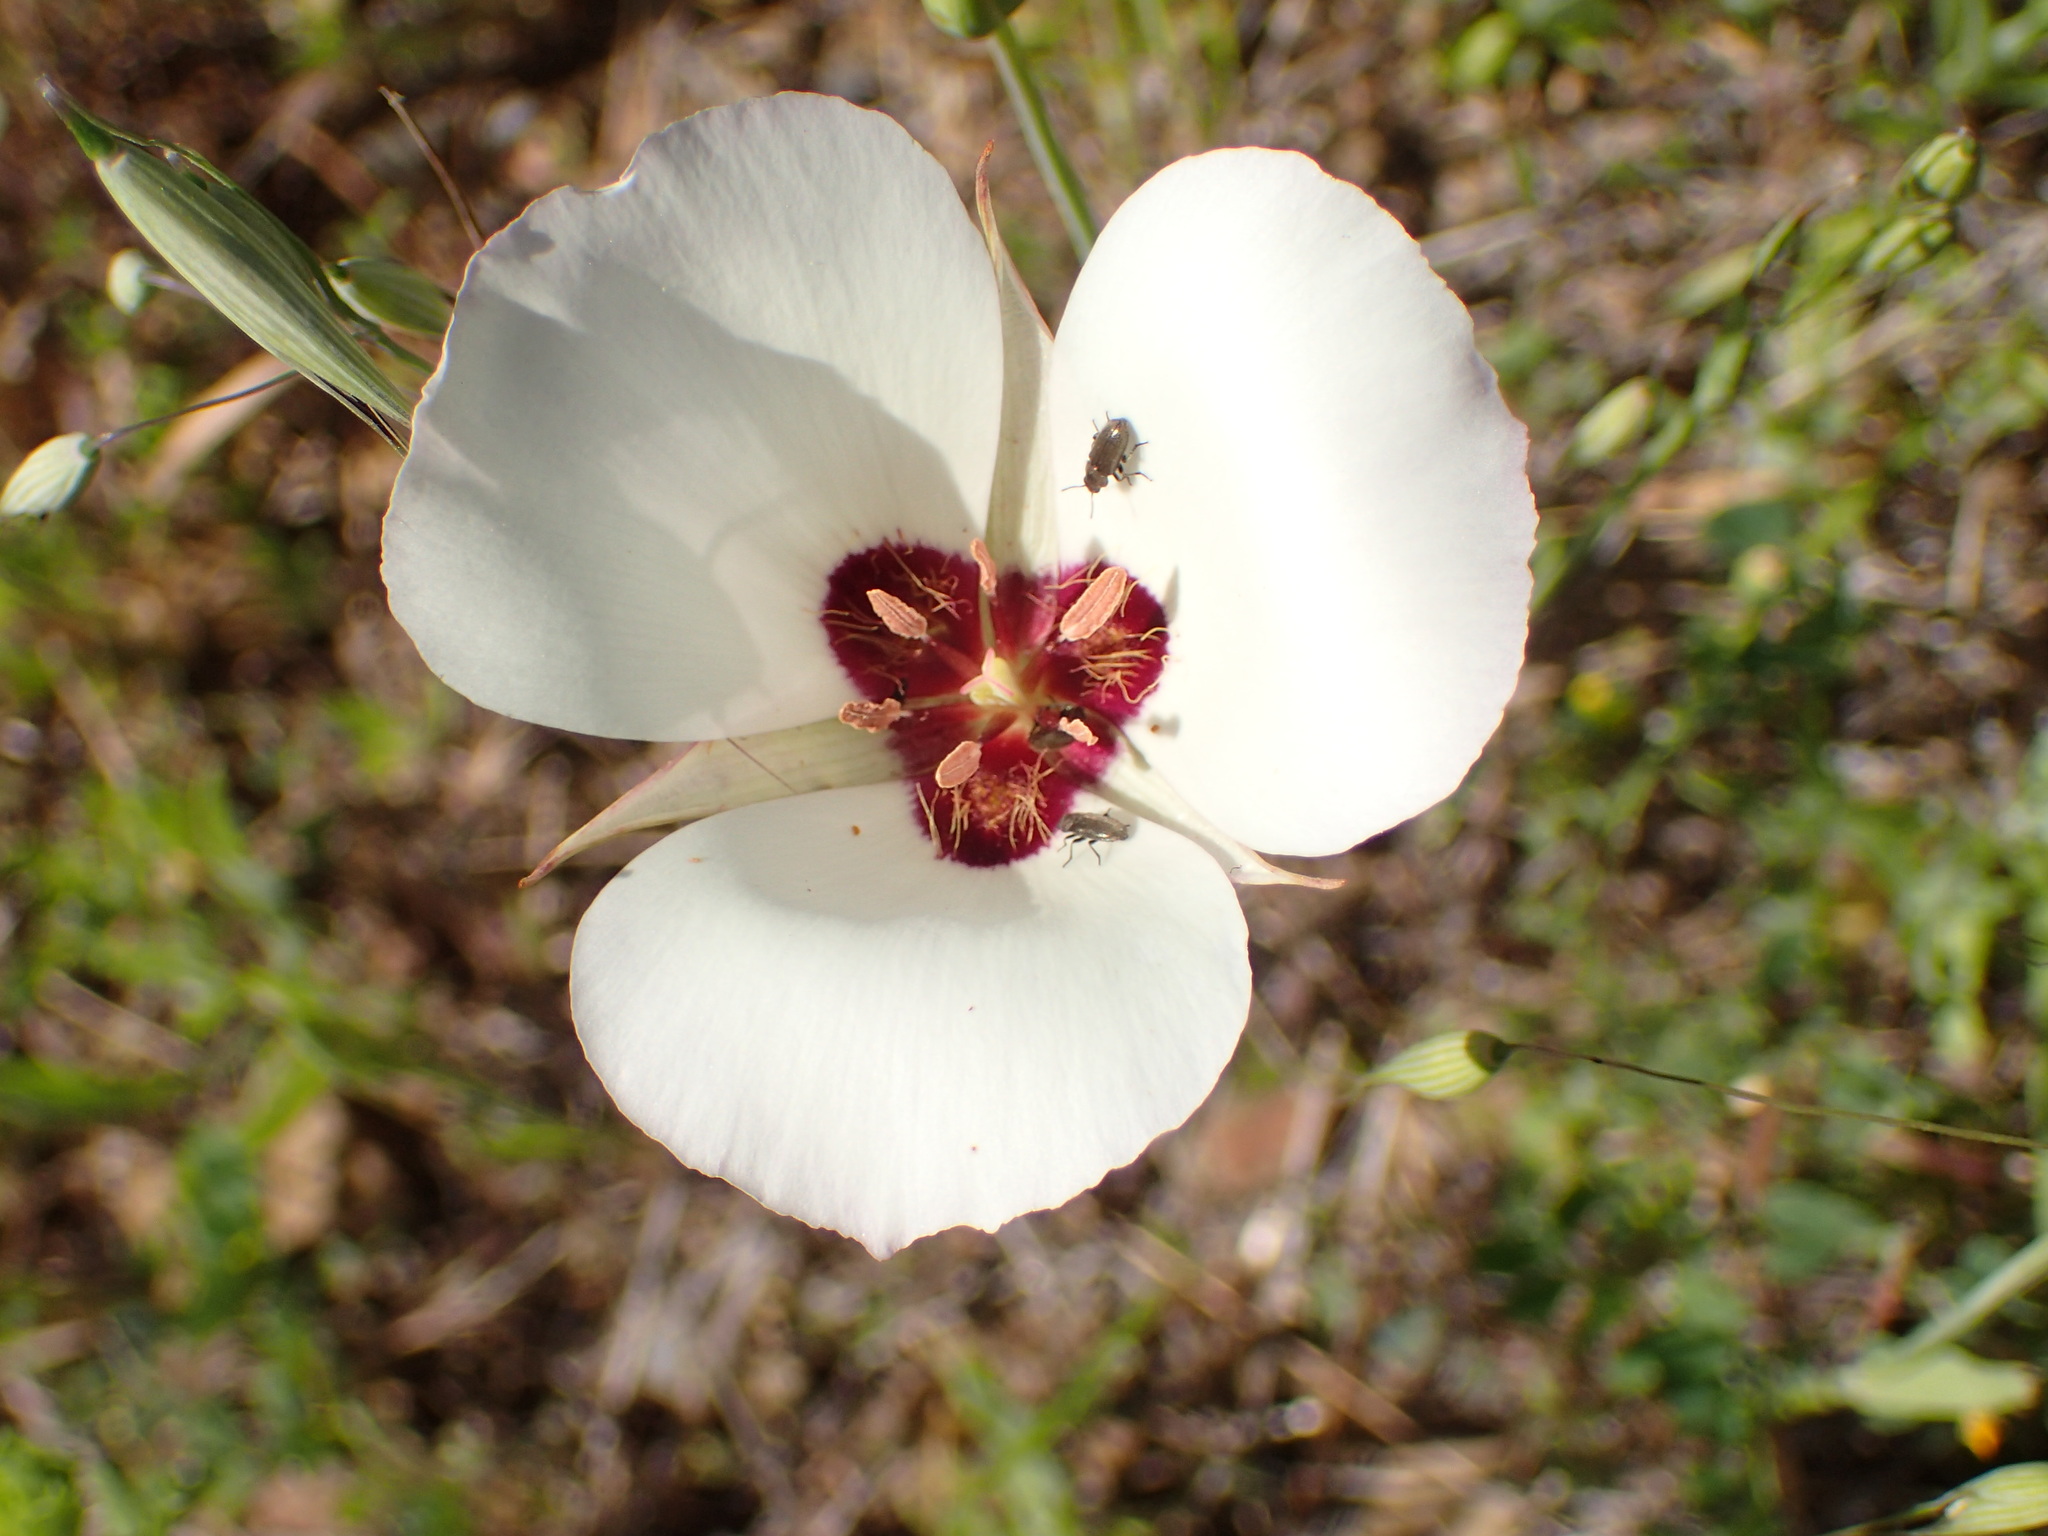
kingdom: Plantae
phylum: Tracheophyta
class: Liliopsida
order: Liliales
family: Liliaceae
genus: Calochortus
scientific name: Calochortus catalinae
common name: Catalina mariposa-lily
